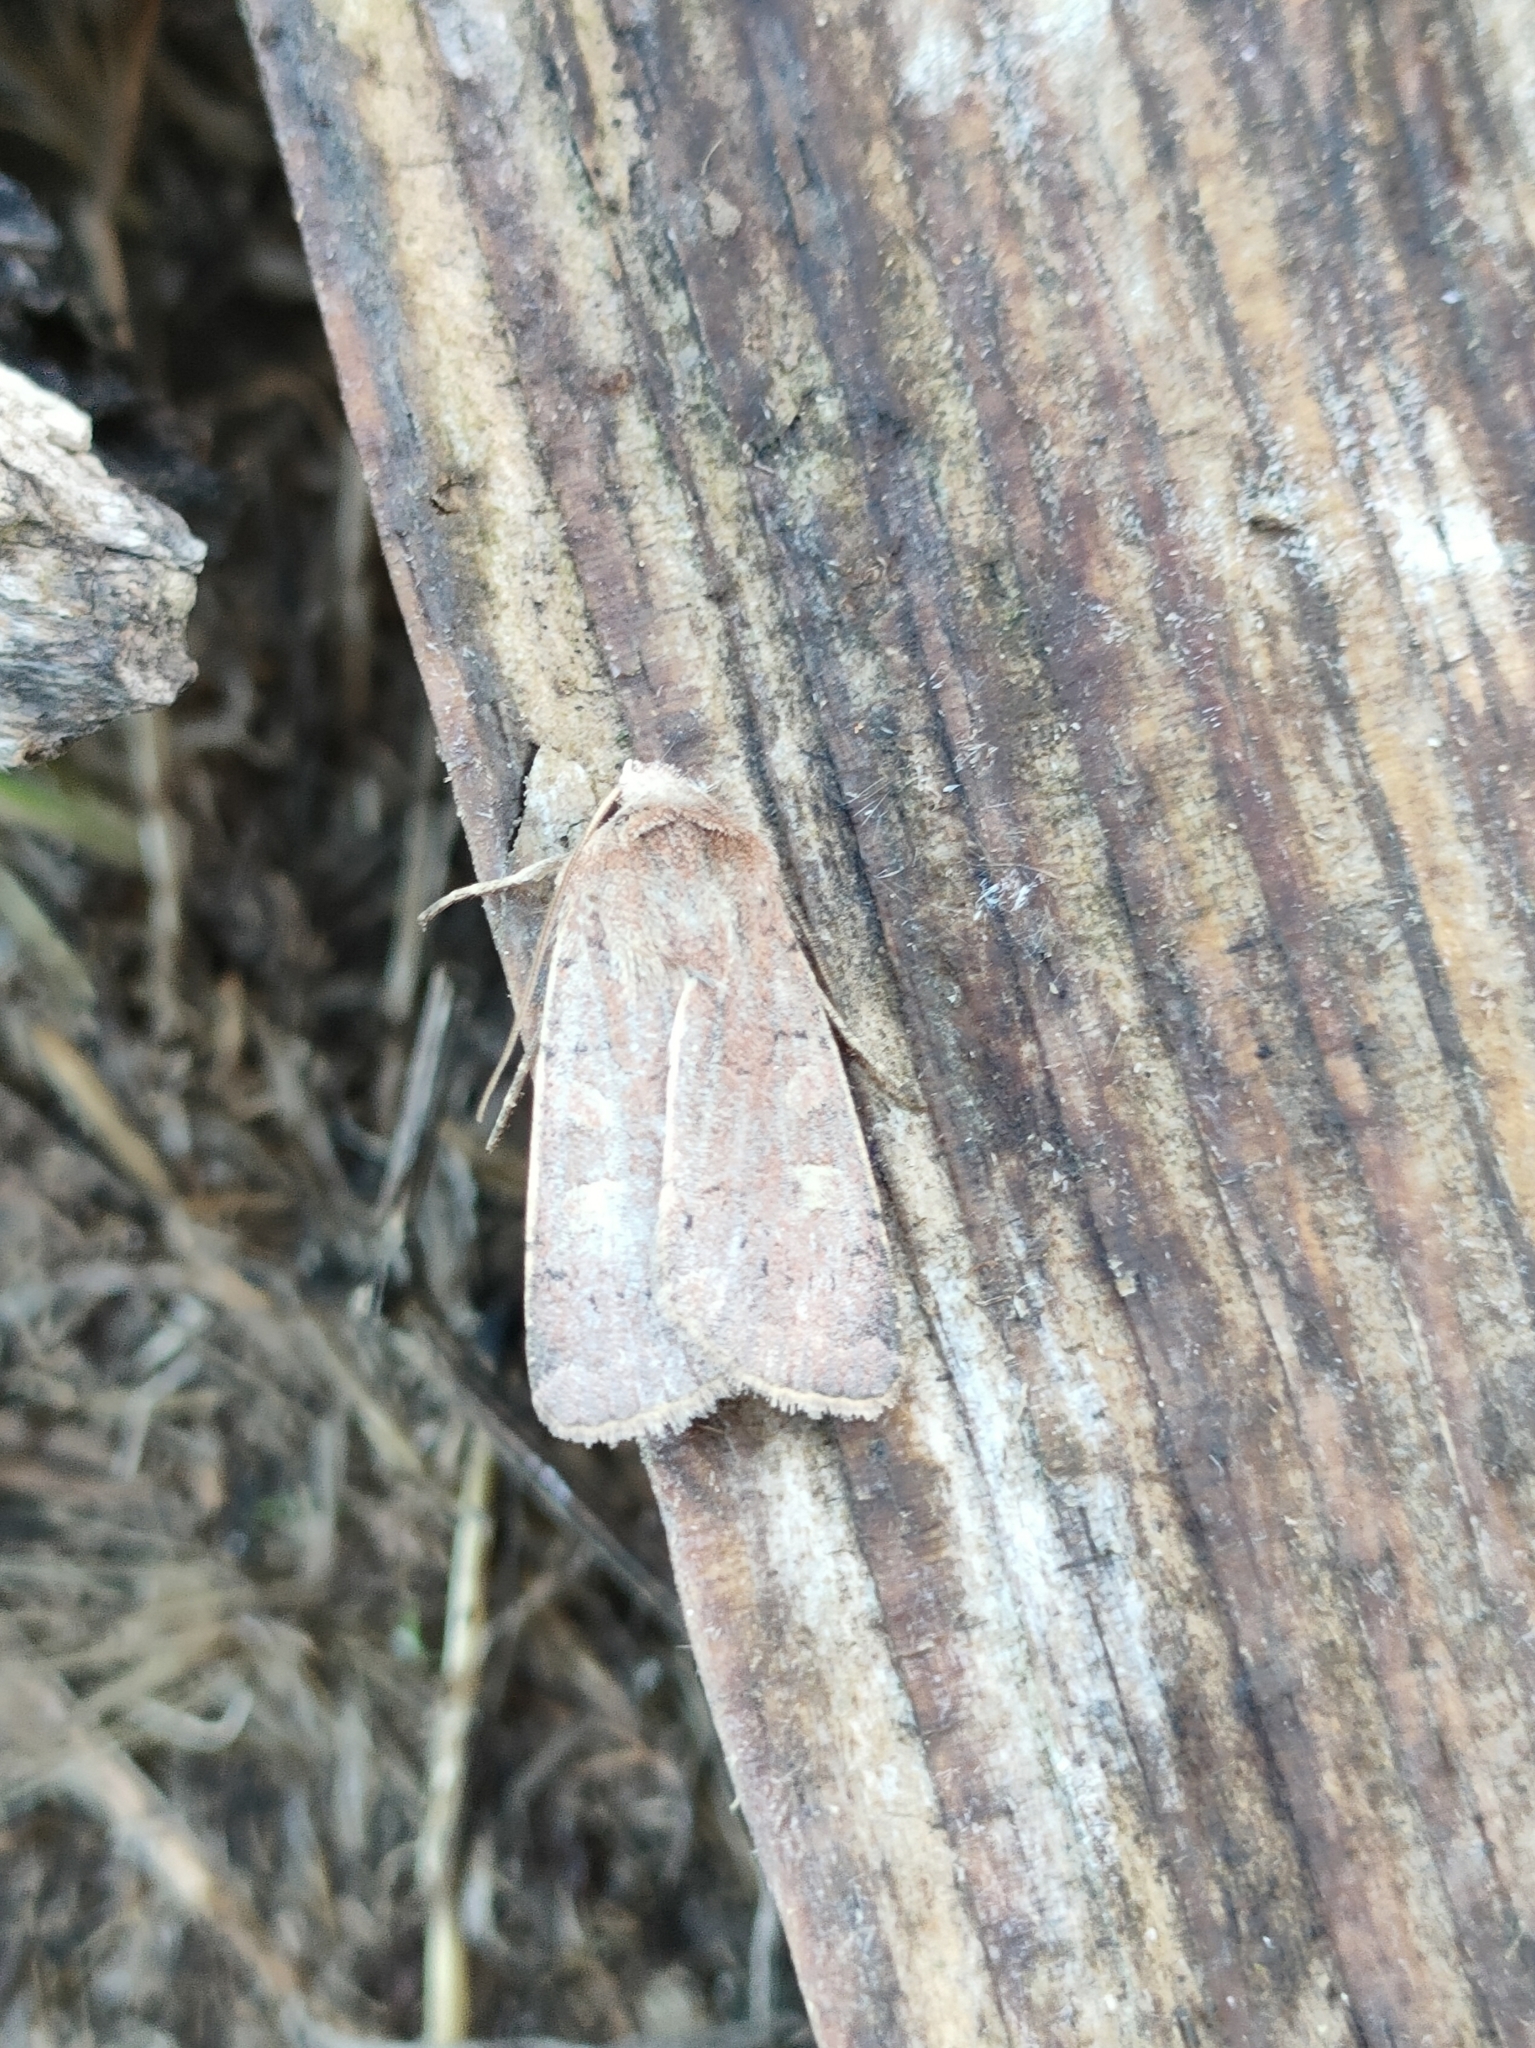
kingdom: Animalia
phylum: Arthropoda
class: Insecta
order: Lepidoptera
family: Noctuidae
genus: Xestia
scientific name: Xestia xanthographa
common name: Square-spot rustic
